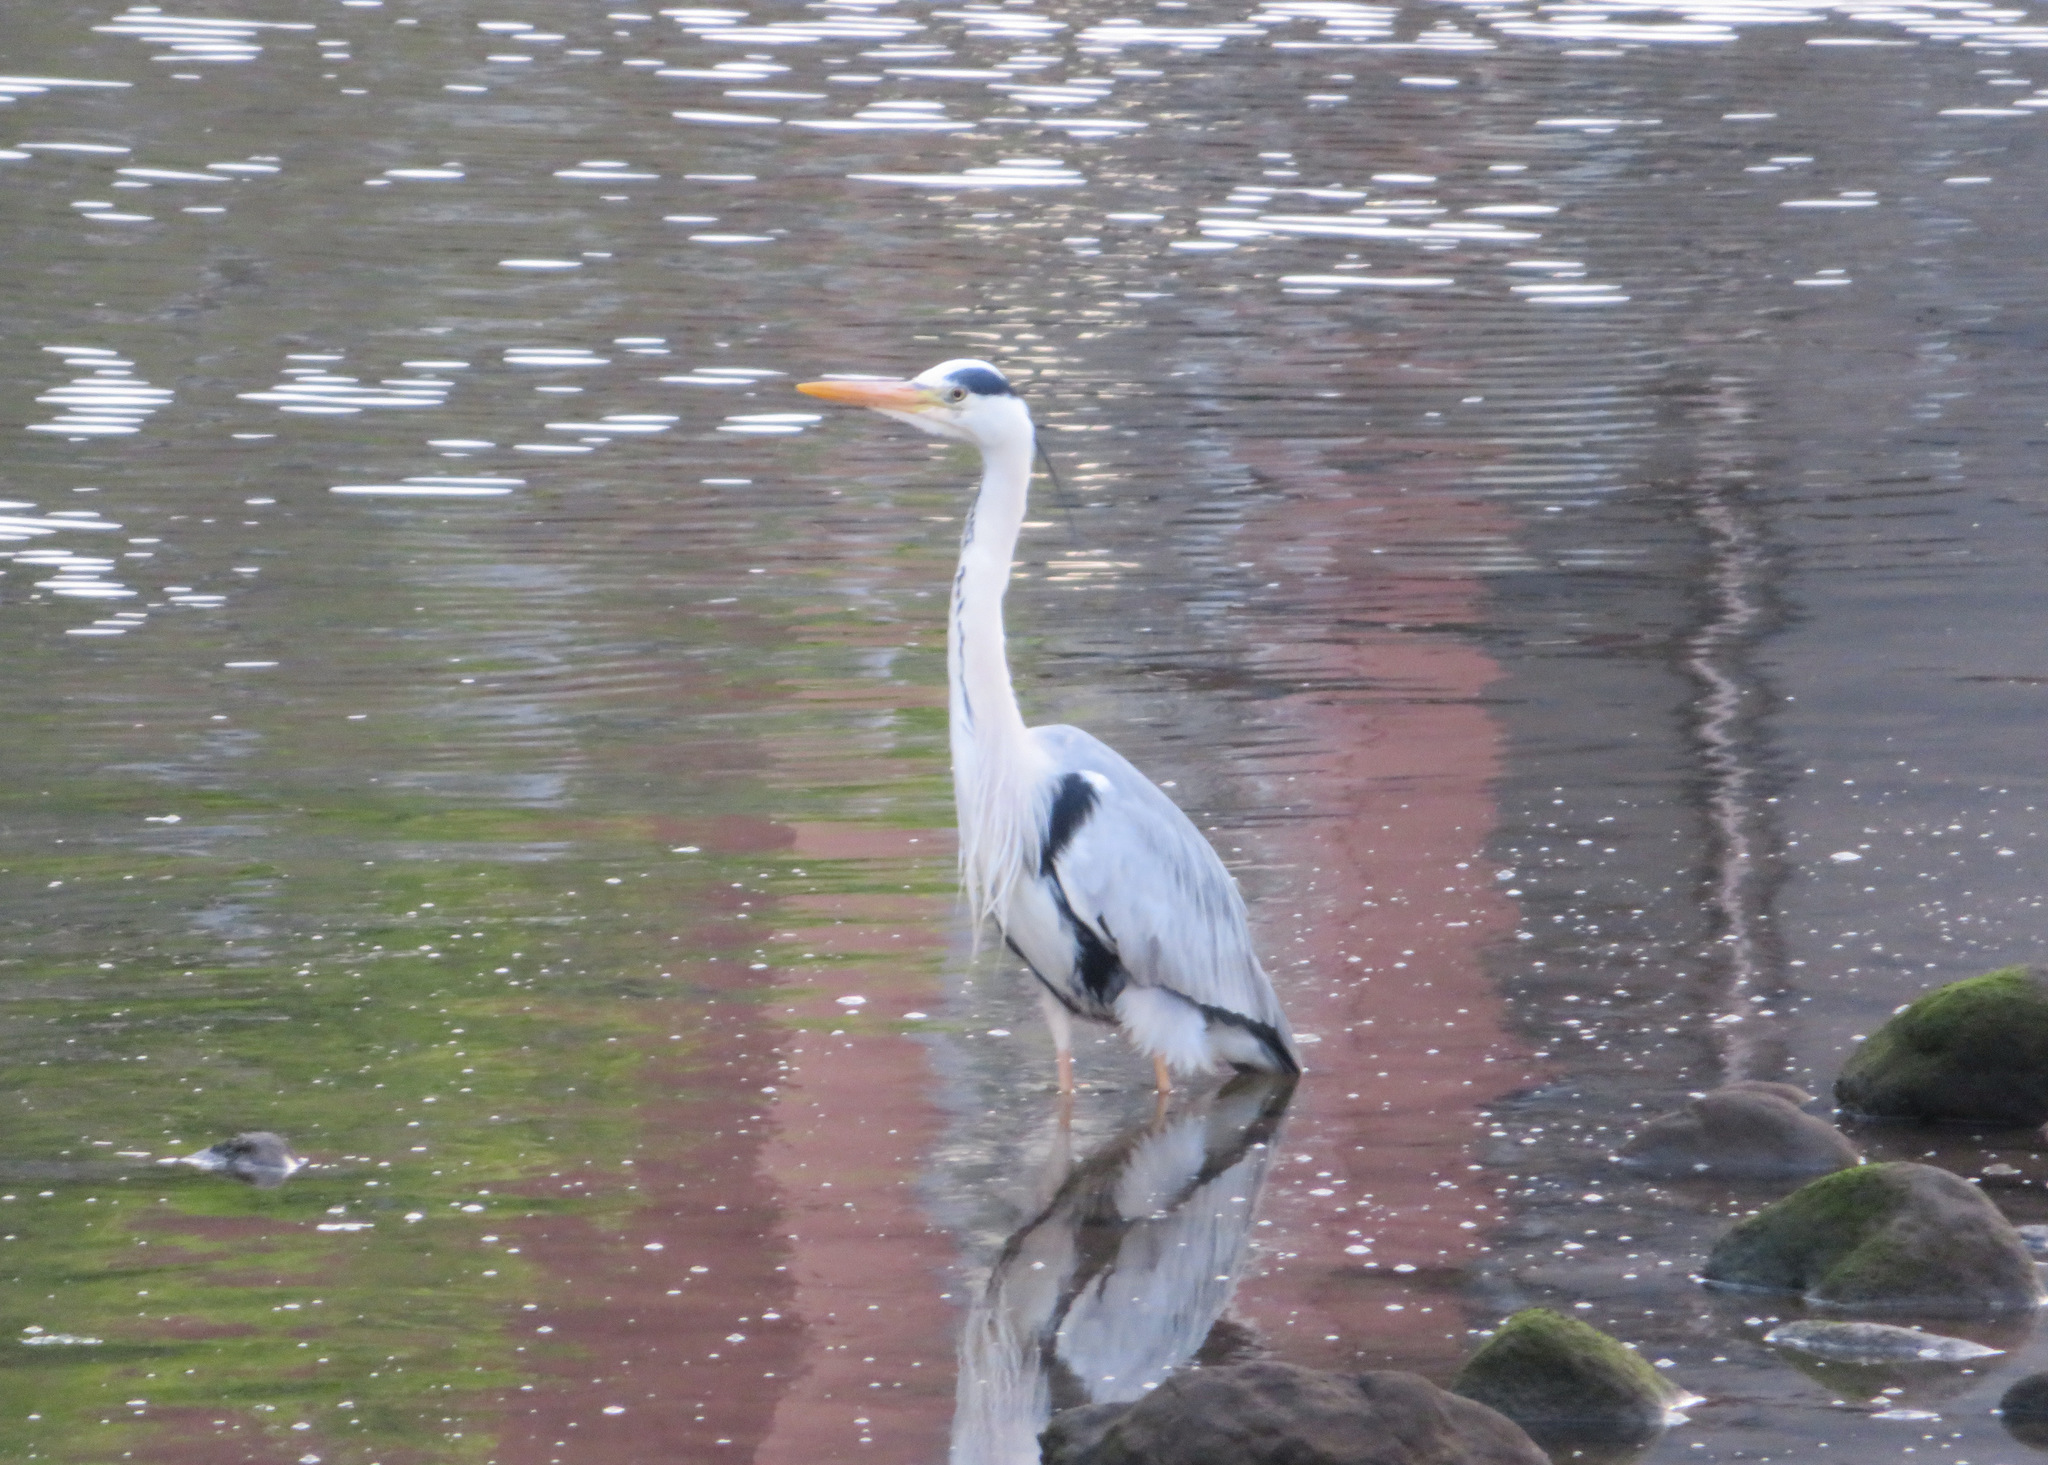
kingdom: Animalia
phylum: Chordata
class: Aves
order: Pelecaniformes
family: Ardeidae
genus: Ardea
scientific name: Ardea cinerea
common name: Grey heron
